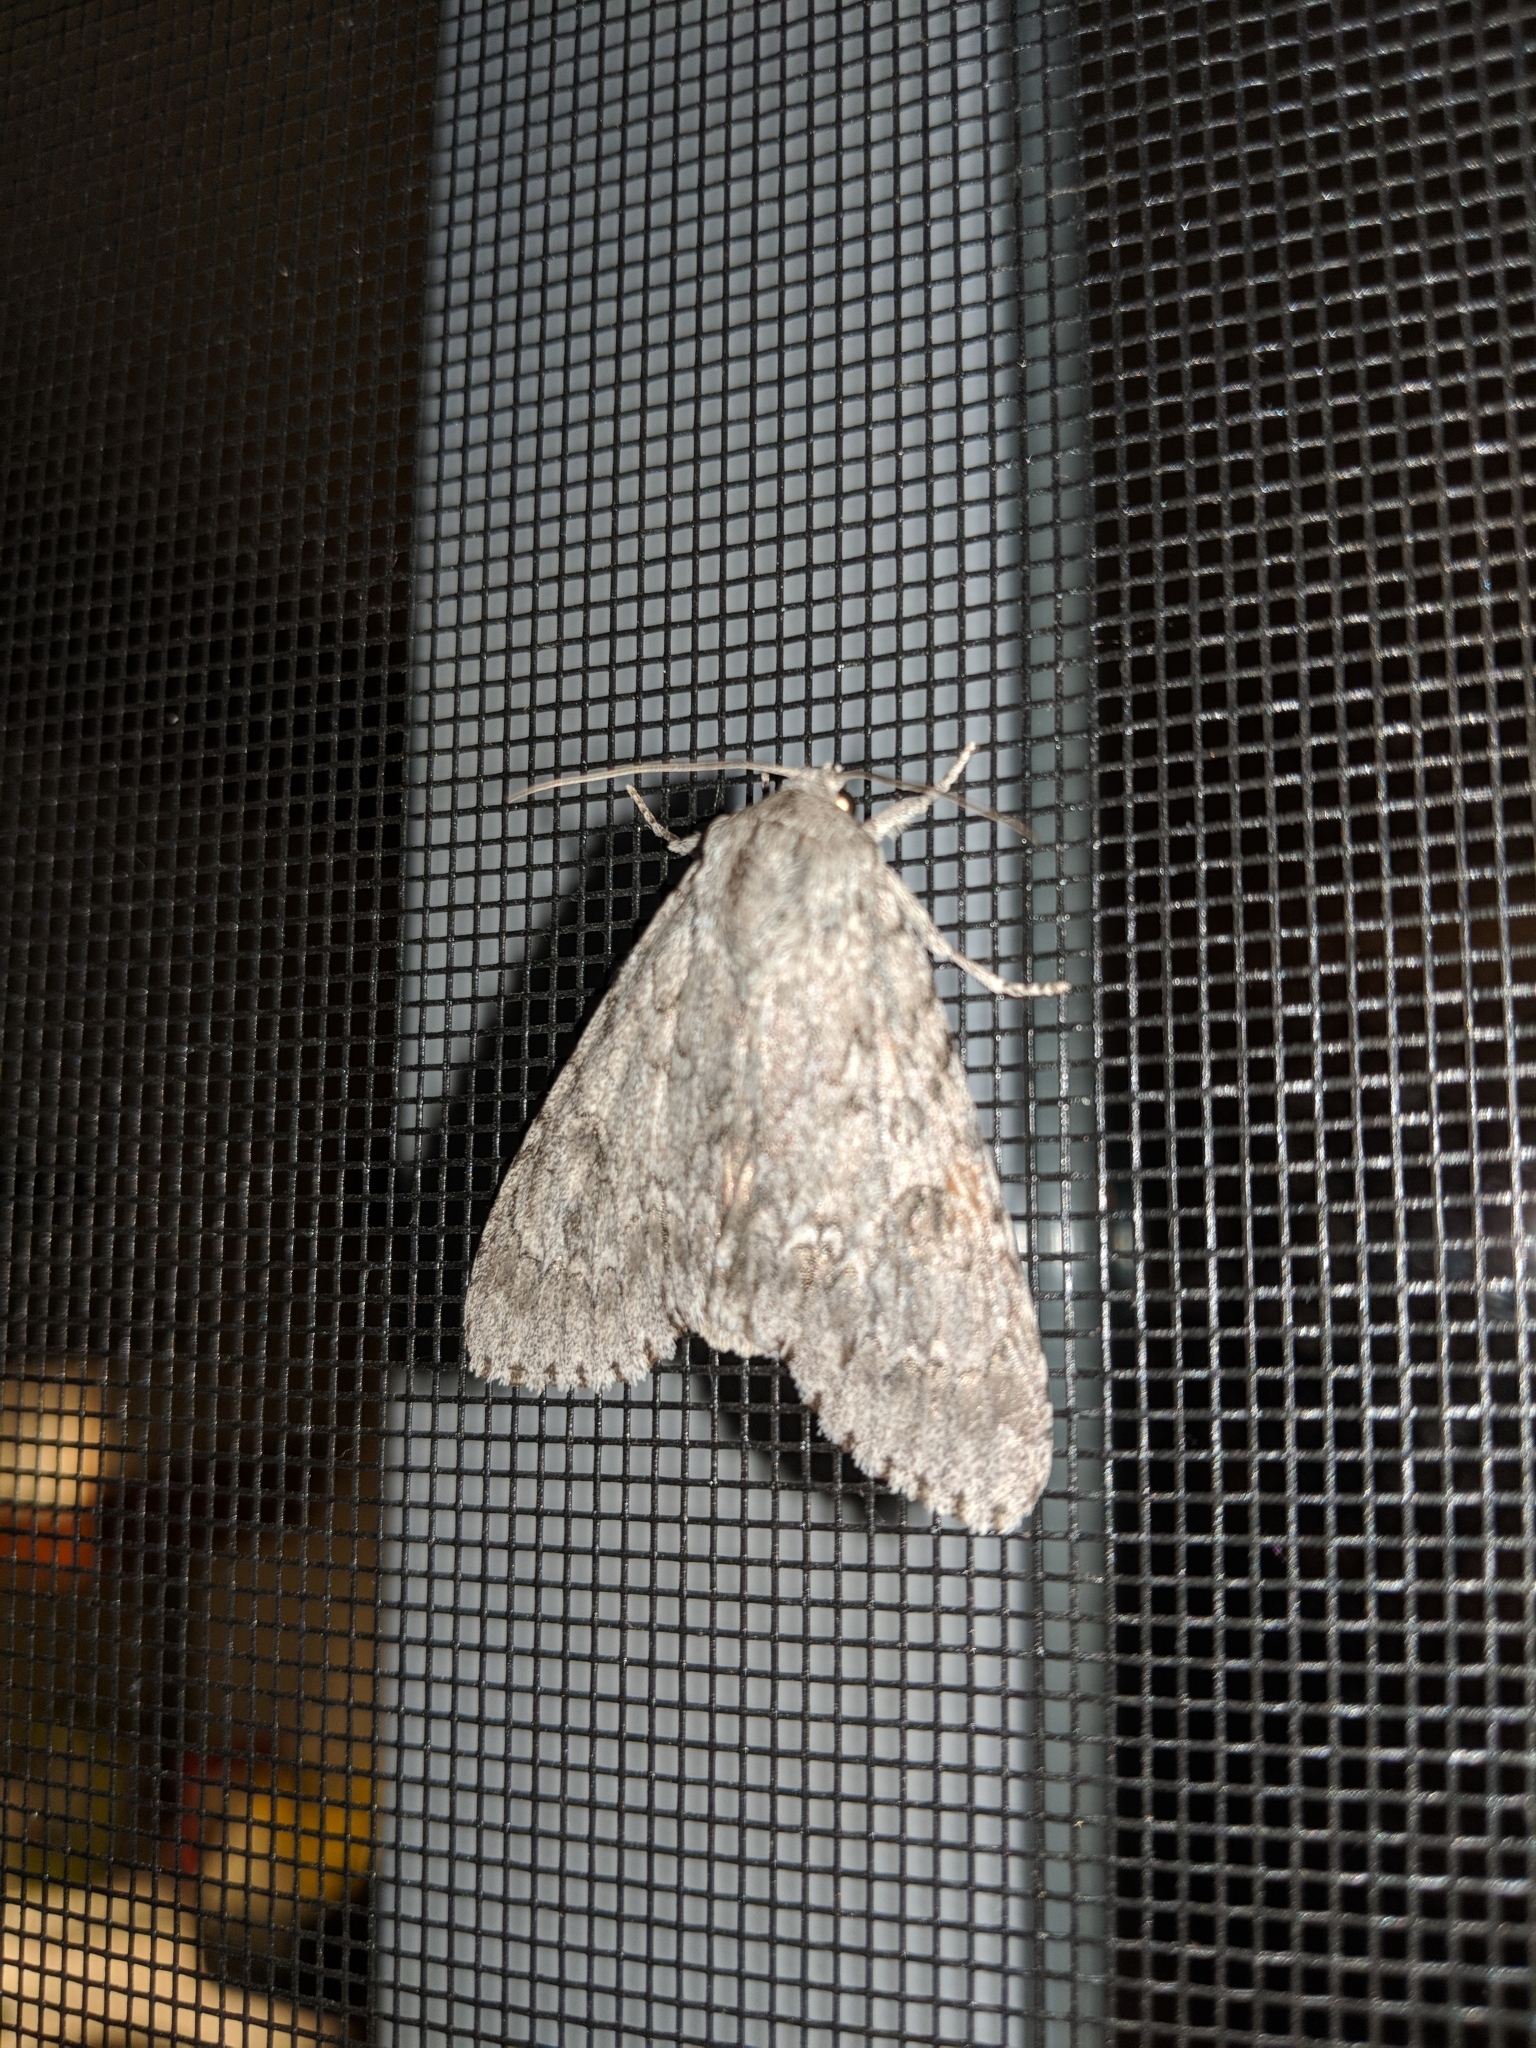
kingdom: Animalia
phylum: Arthropoda
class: Insecta
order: Lepidoptera
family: Noctuidae
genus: Acronicta
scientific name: Acronicta americana
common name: American dagger
